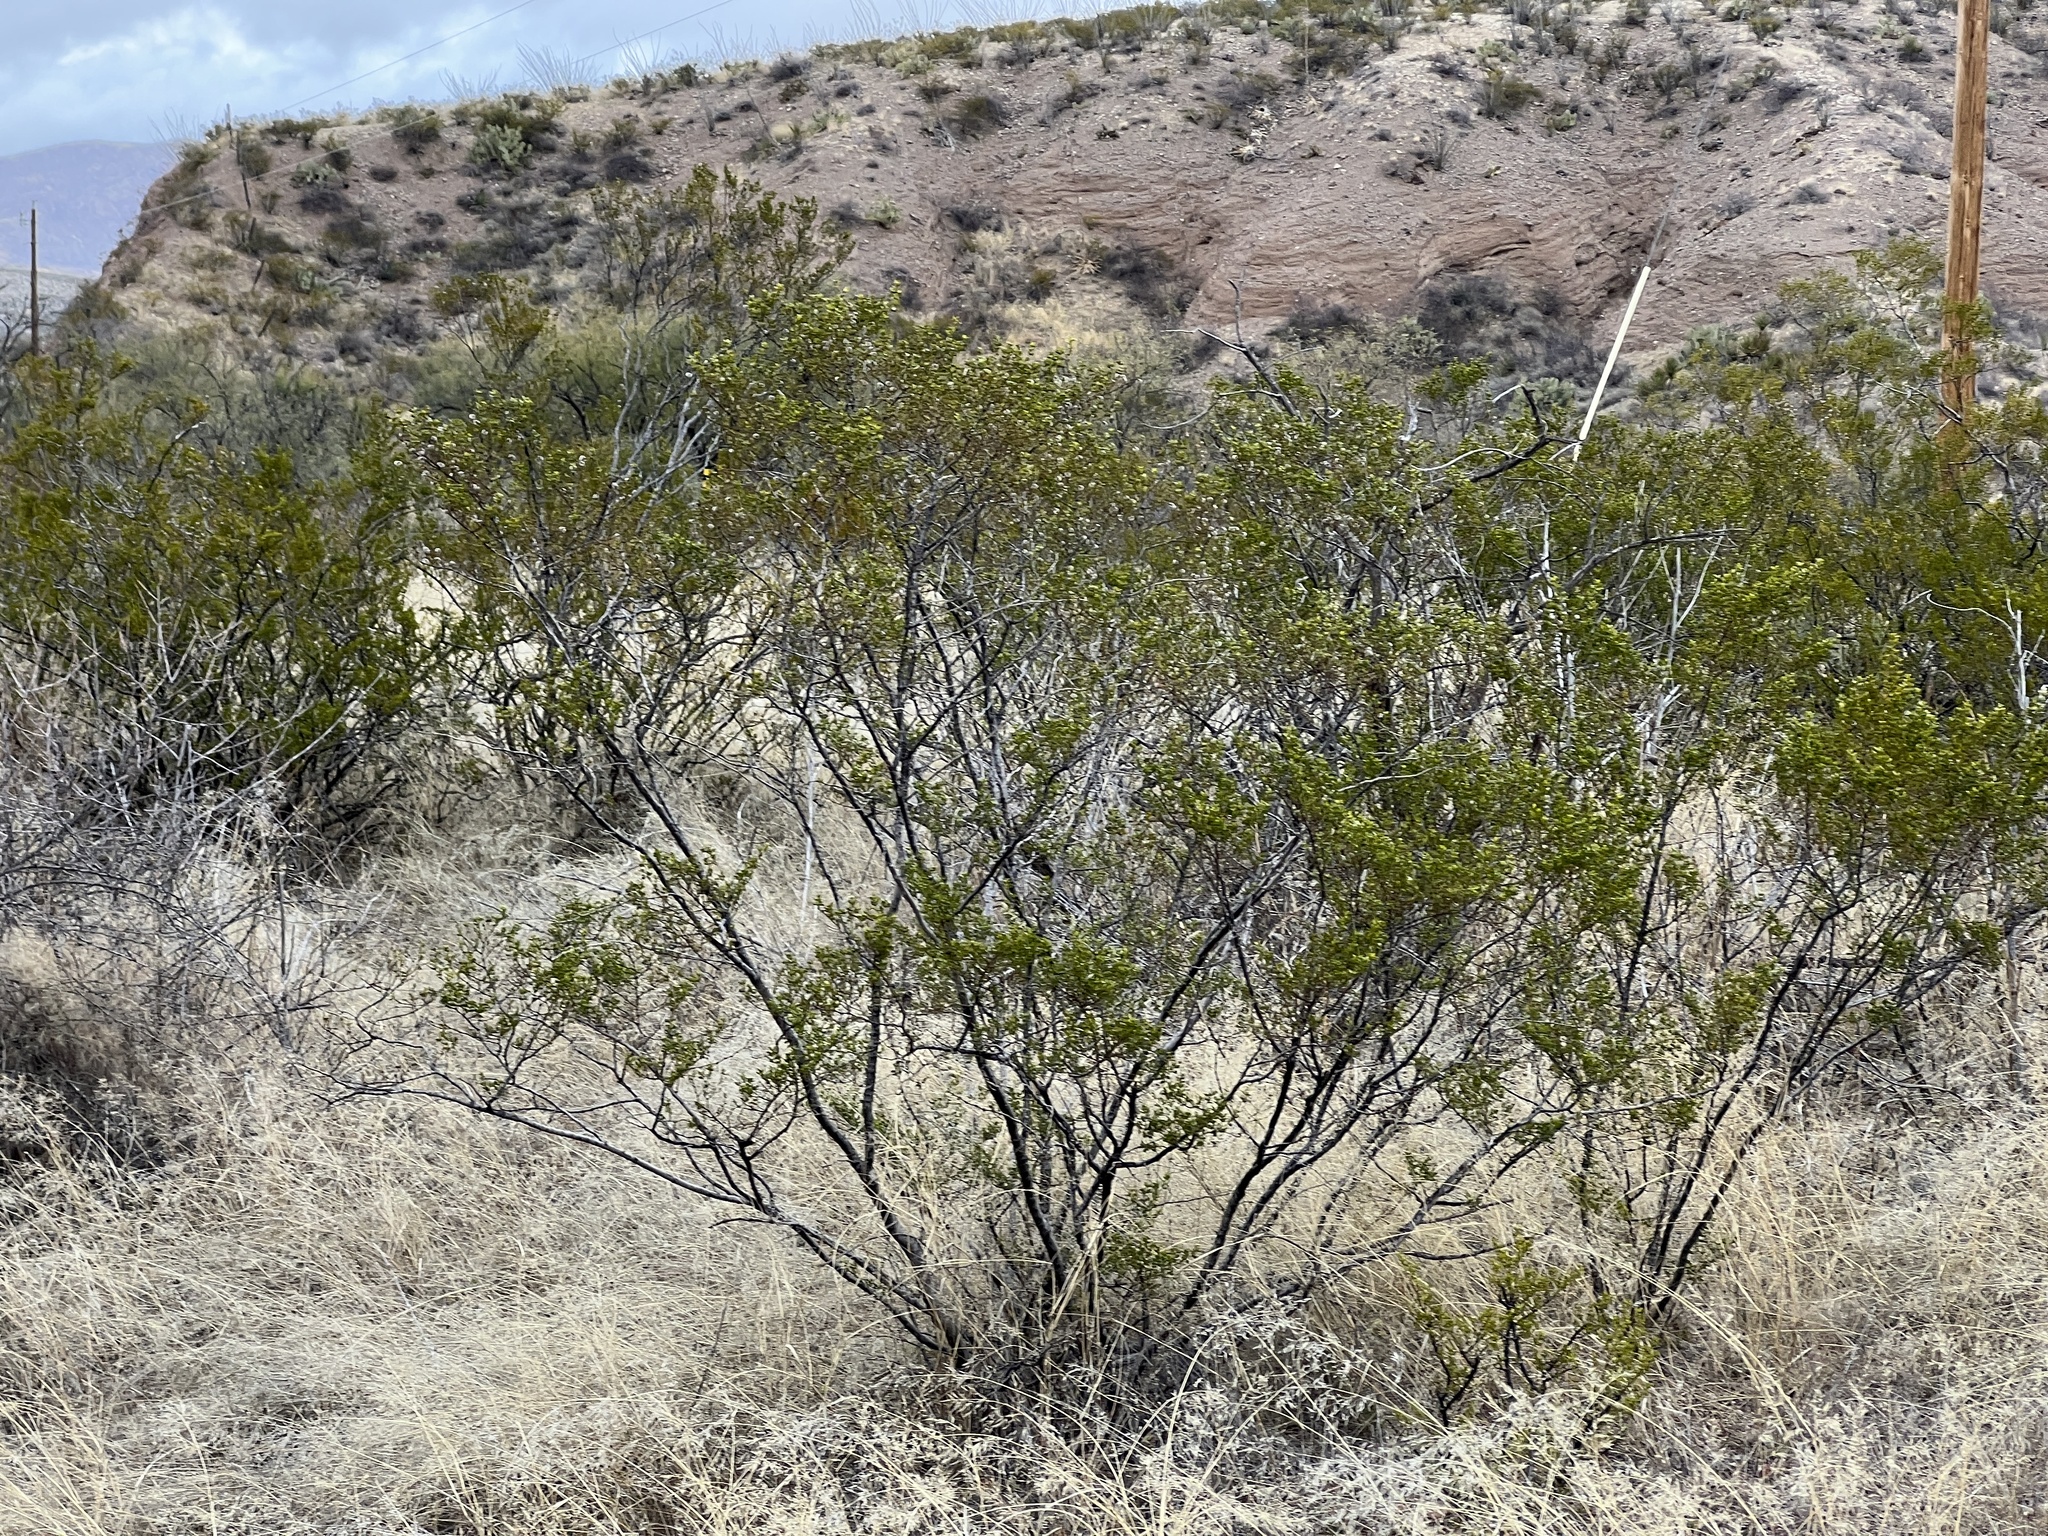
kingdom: Plantae
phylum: Tracheophyta
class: Magnoliopsida
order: Zygophyllales
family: Zygophyllaceae
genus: Larrea
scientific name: Larrea tridentata
